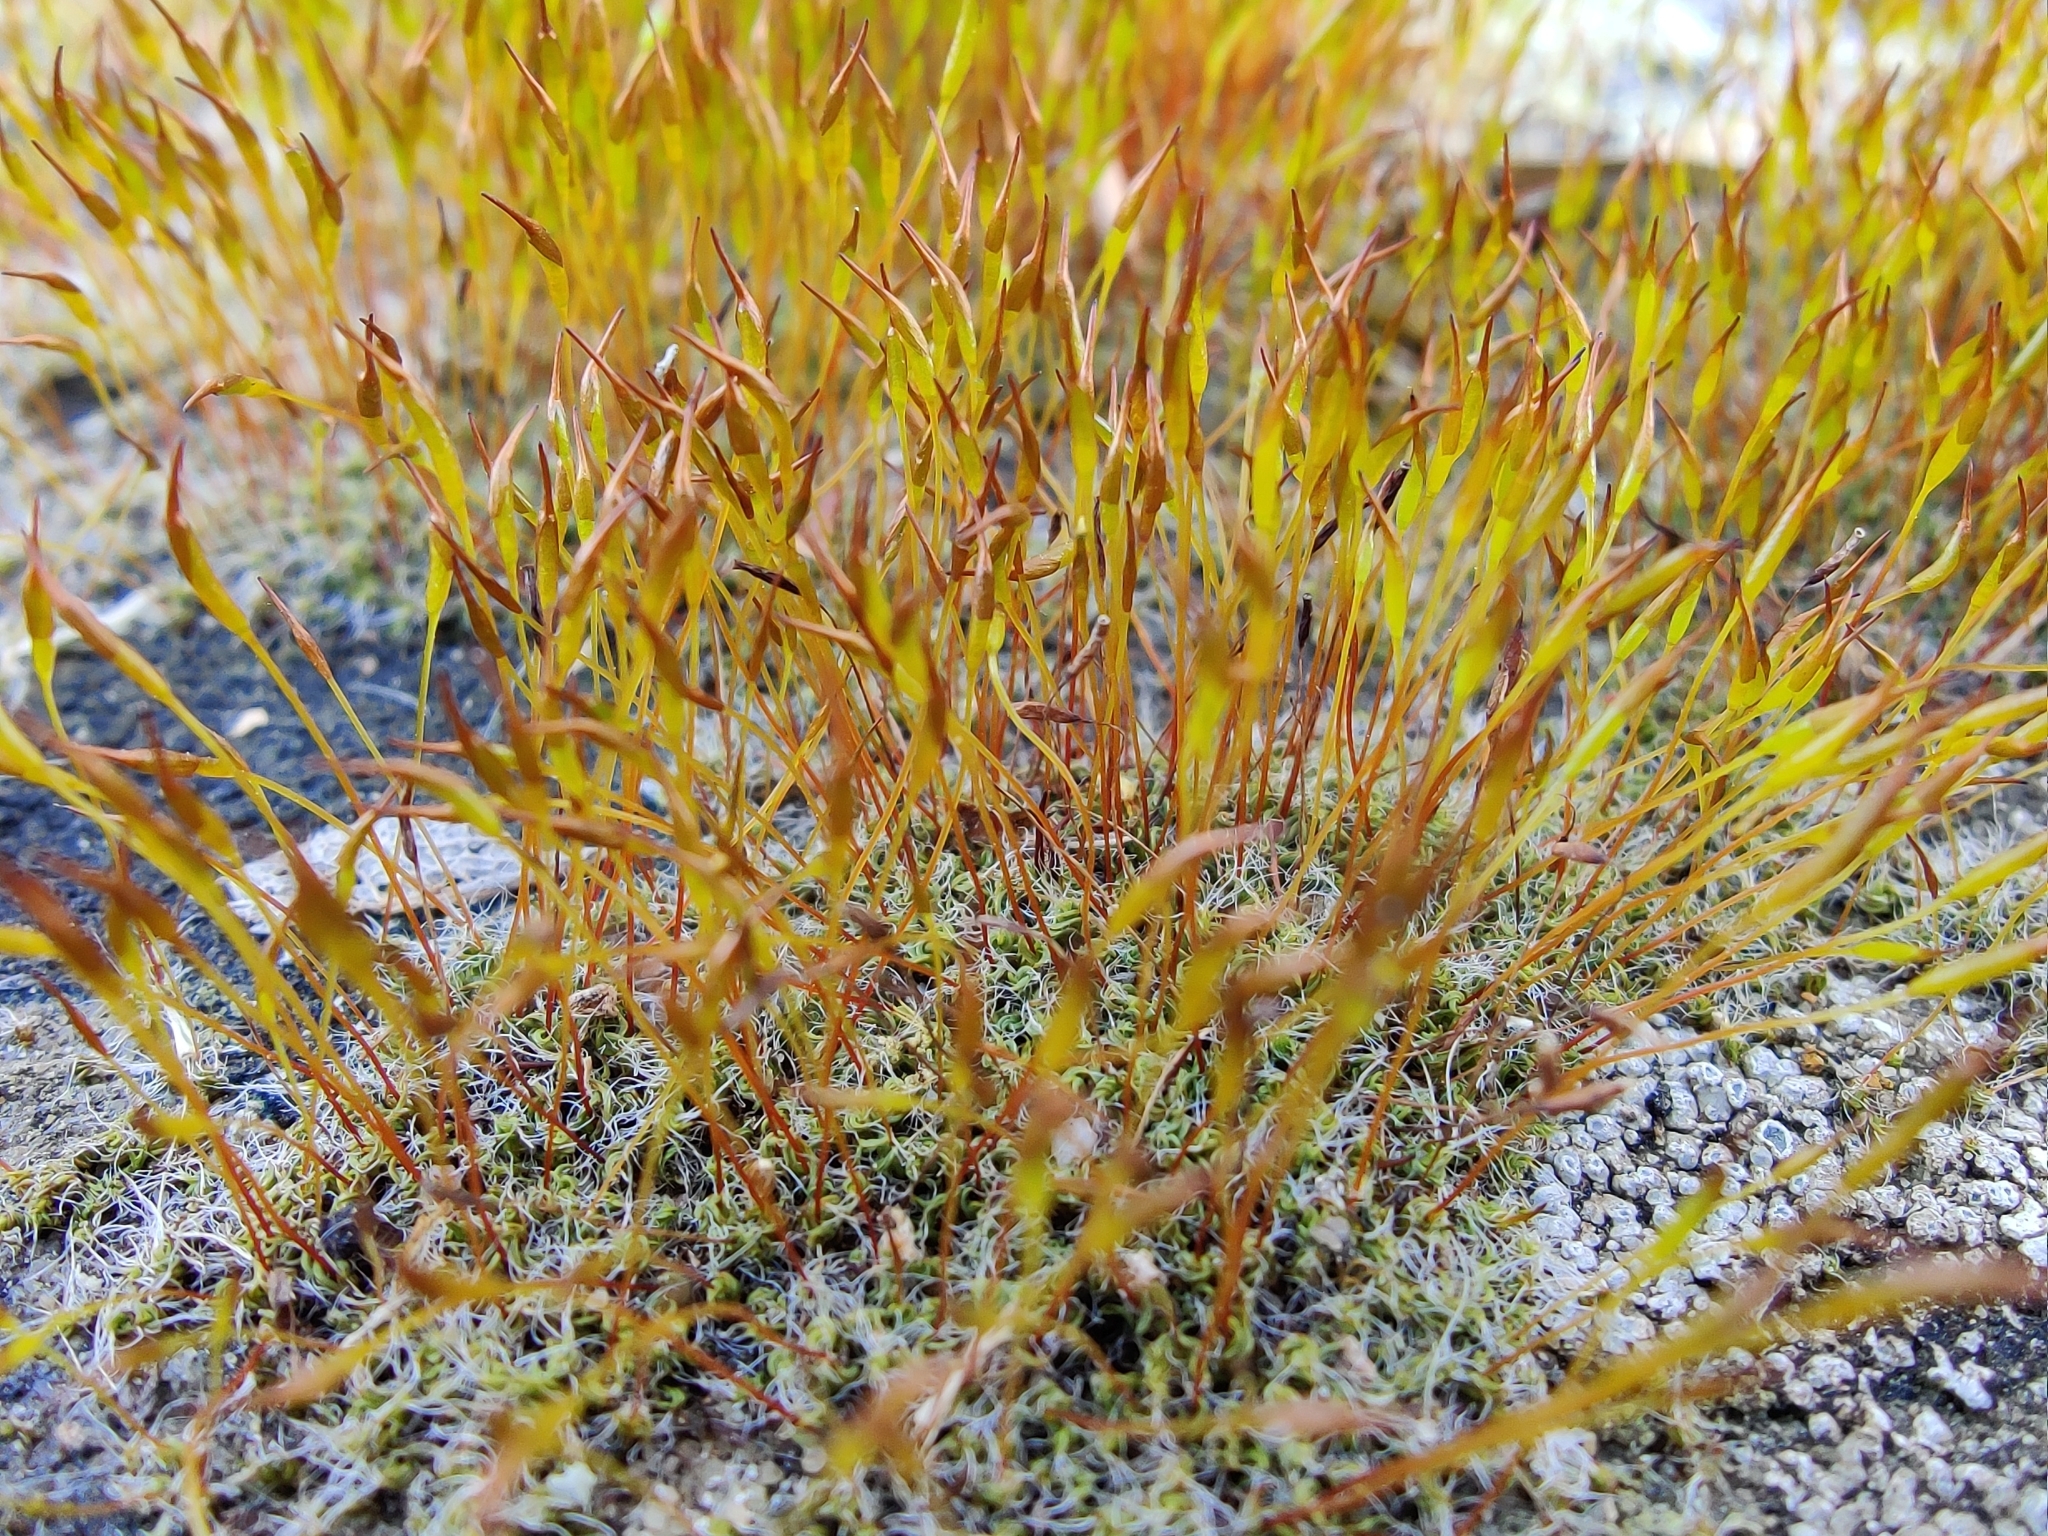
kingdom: Plantae
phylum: Bryophyta
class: Bryopsida
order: Pottiales
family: Pottiaceae
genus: Tortula
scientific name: Tortula muralis
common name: Wall screw-moss
